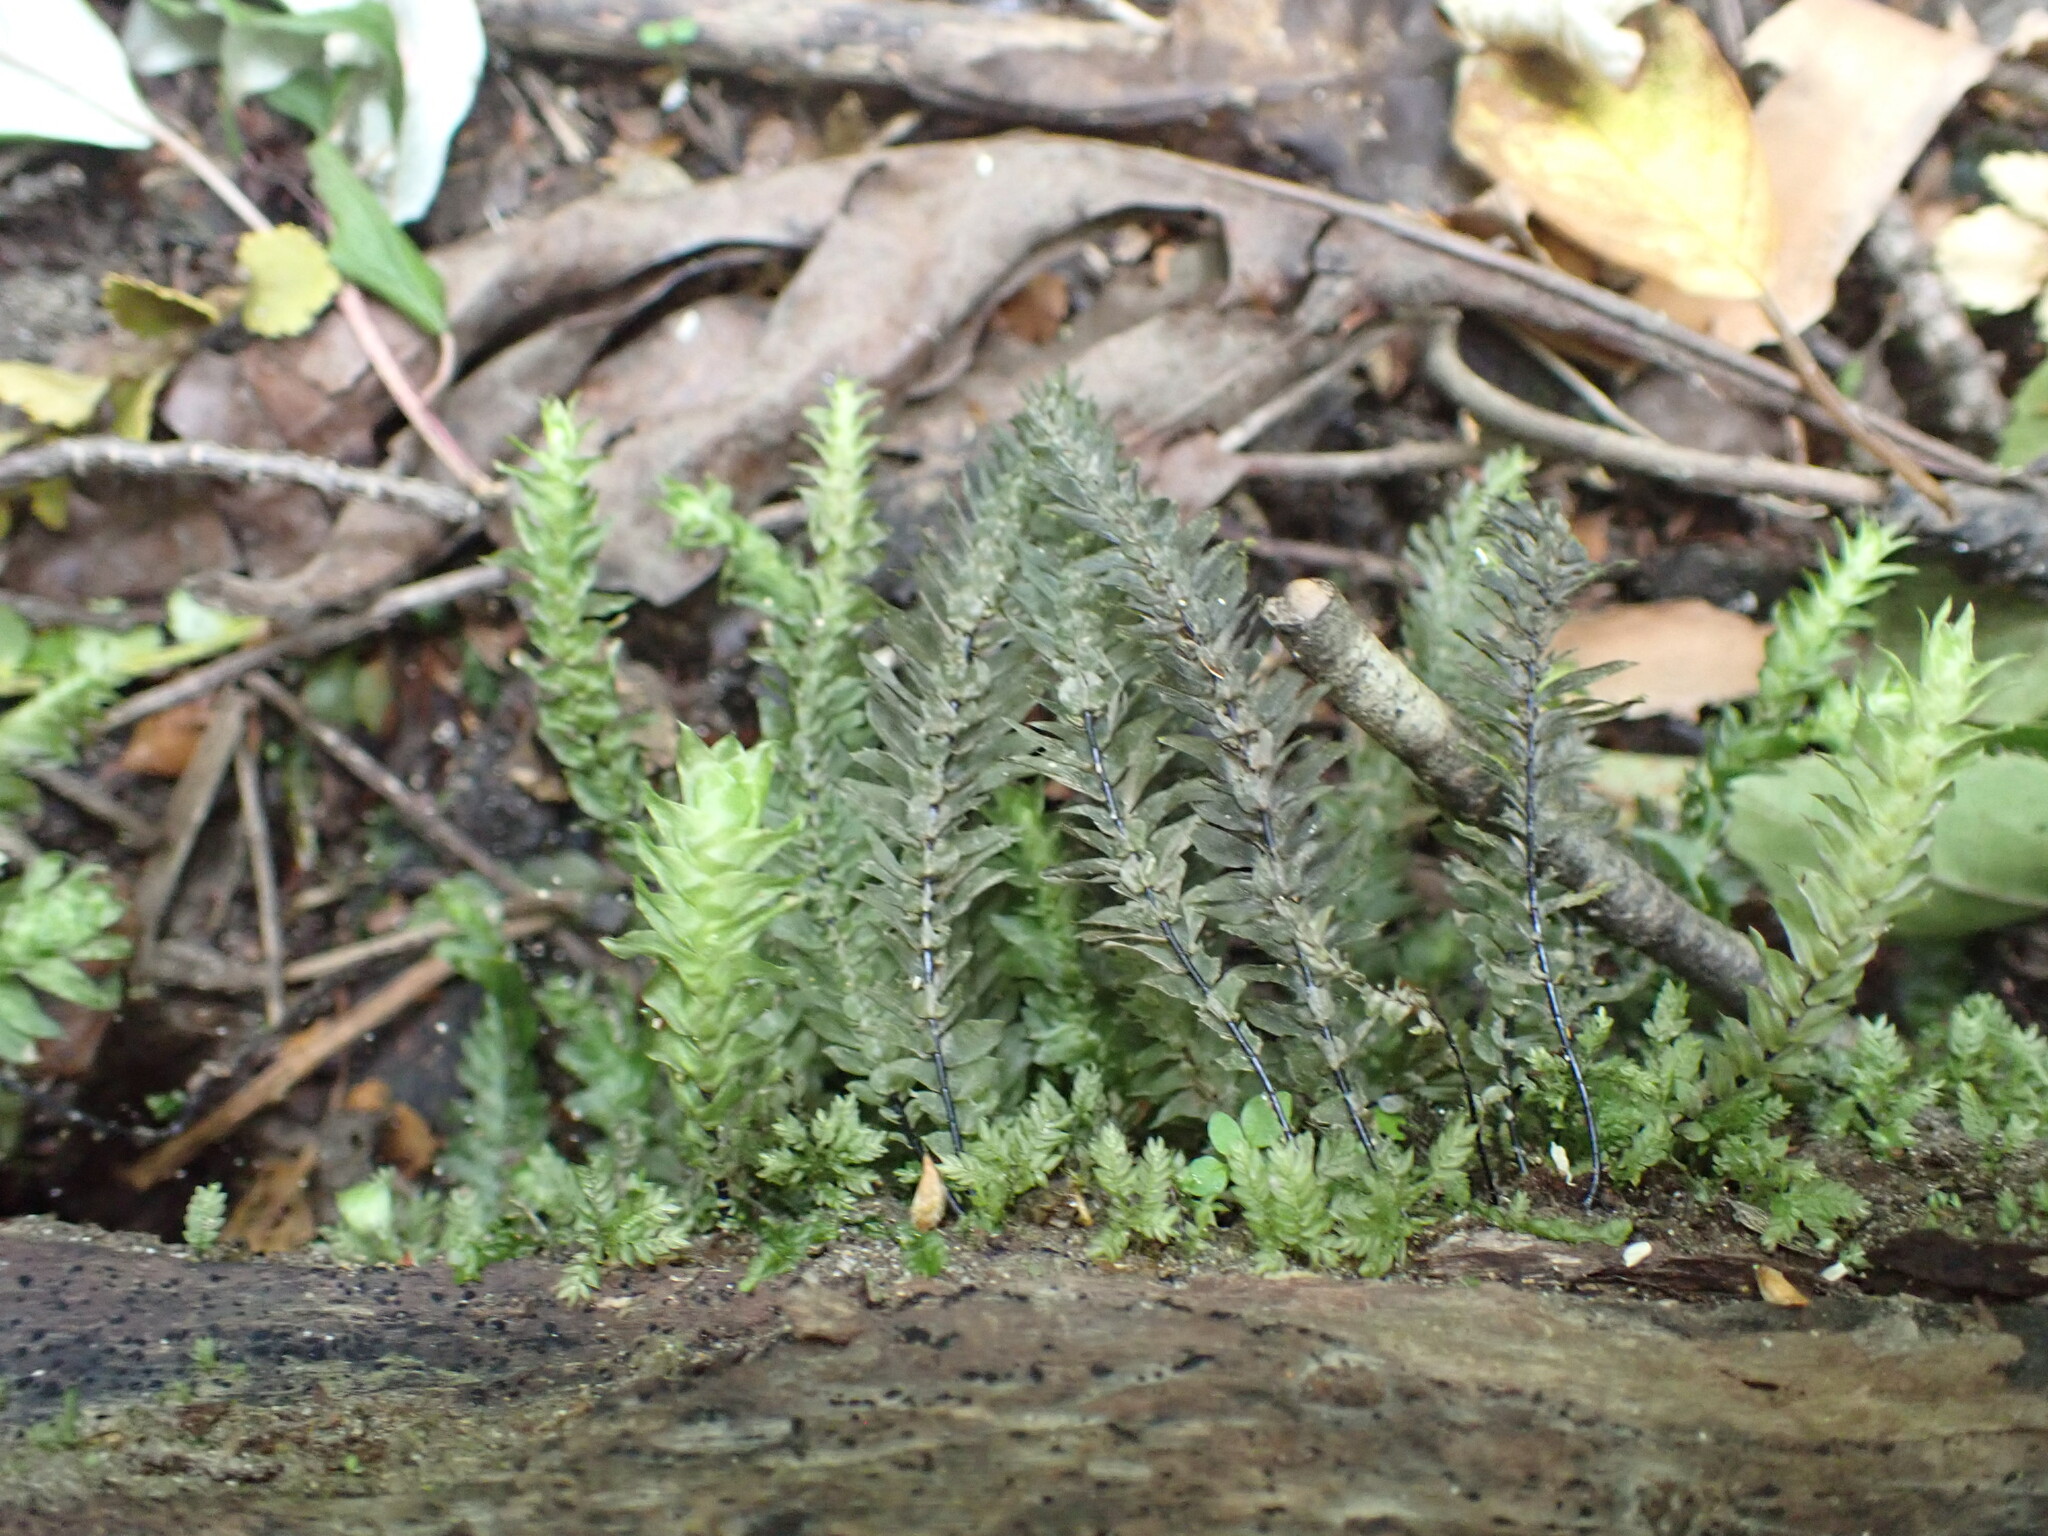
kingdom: Plantae
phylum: Bryophyta
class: Bryopsida
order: Hypopterygiales
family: Hypopterygiaceae
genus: Cyathophorum
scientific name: Cyathophorum bulbosum
